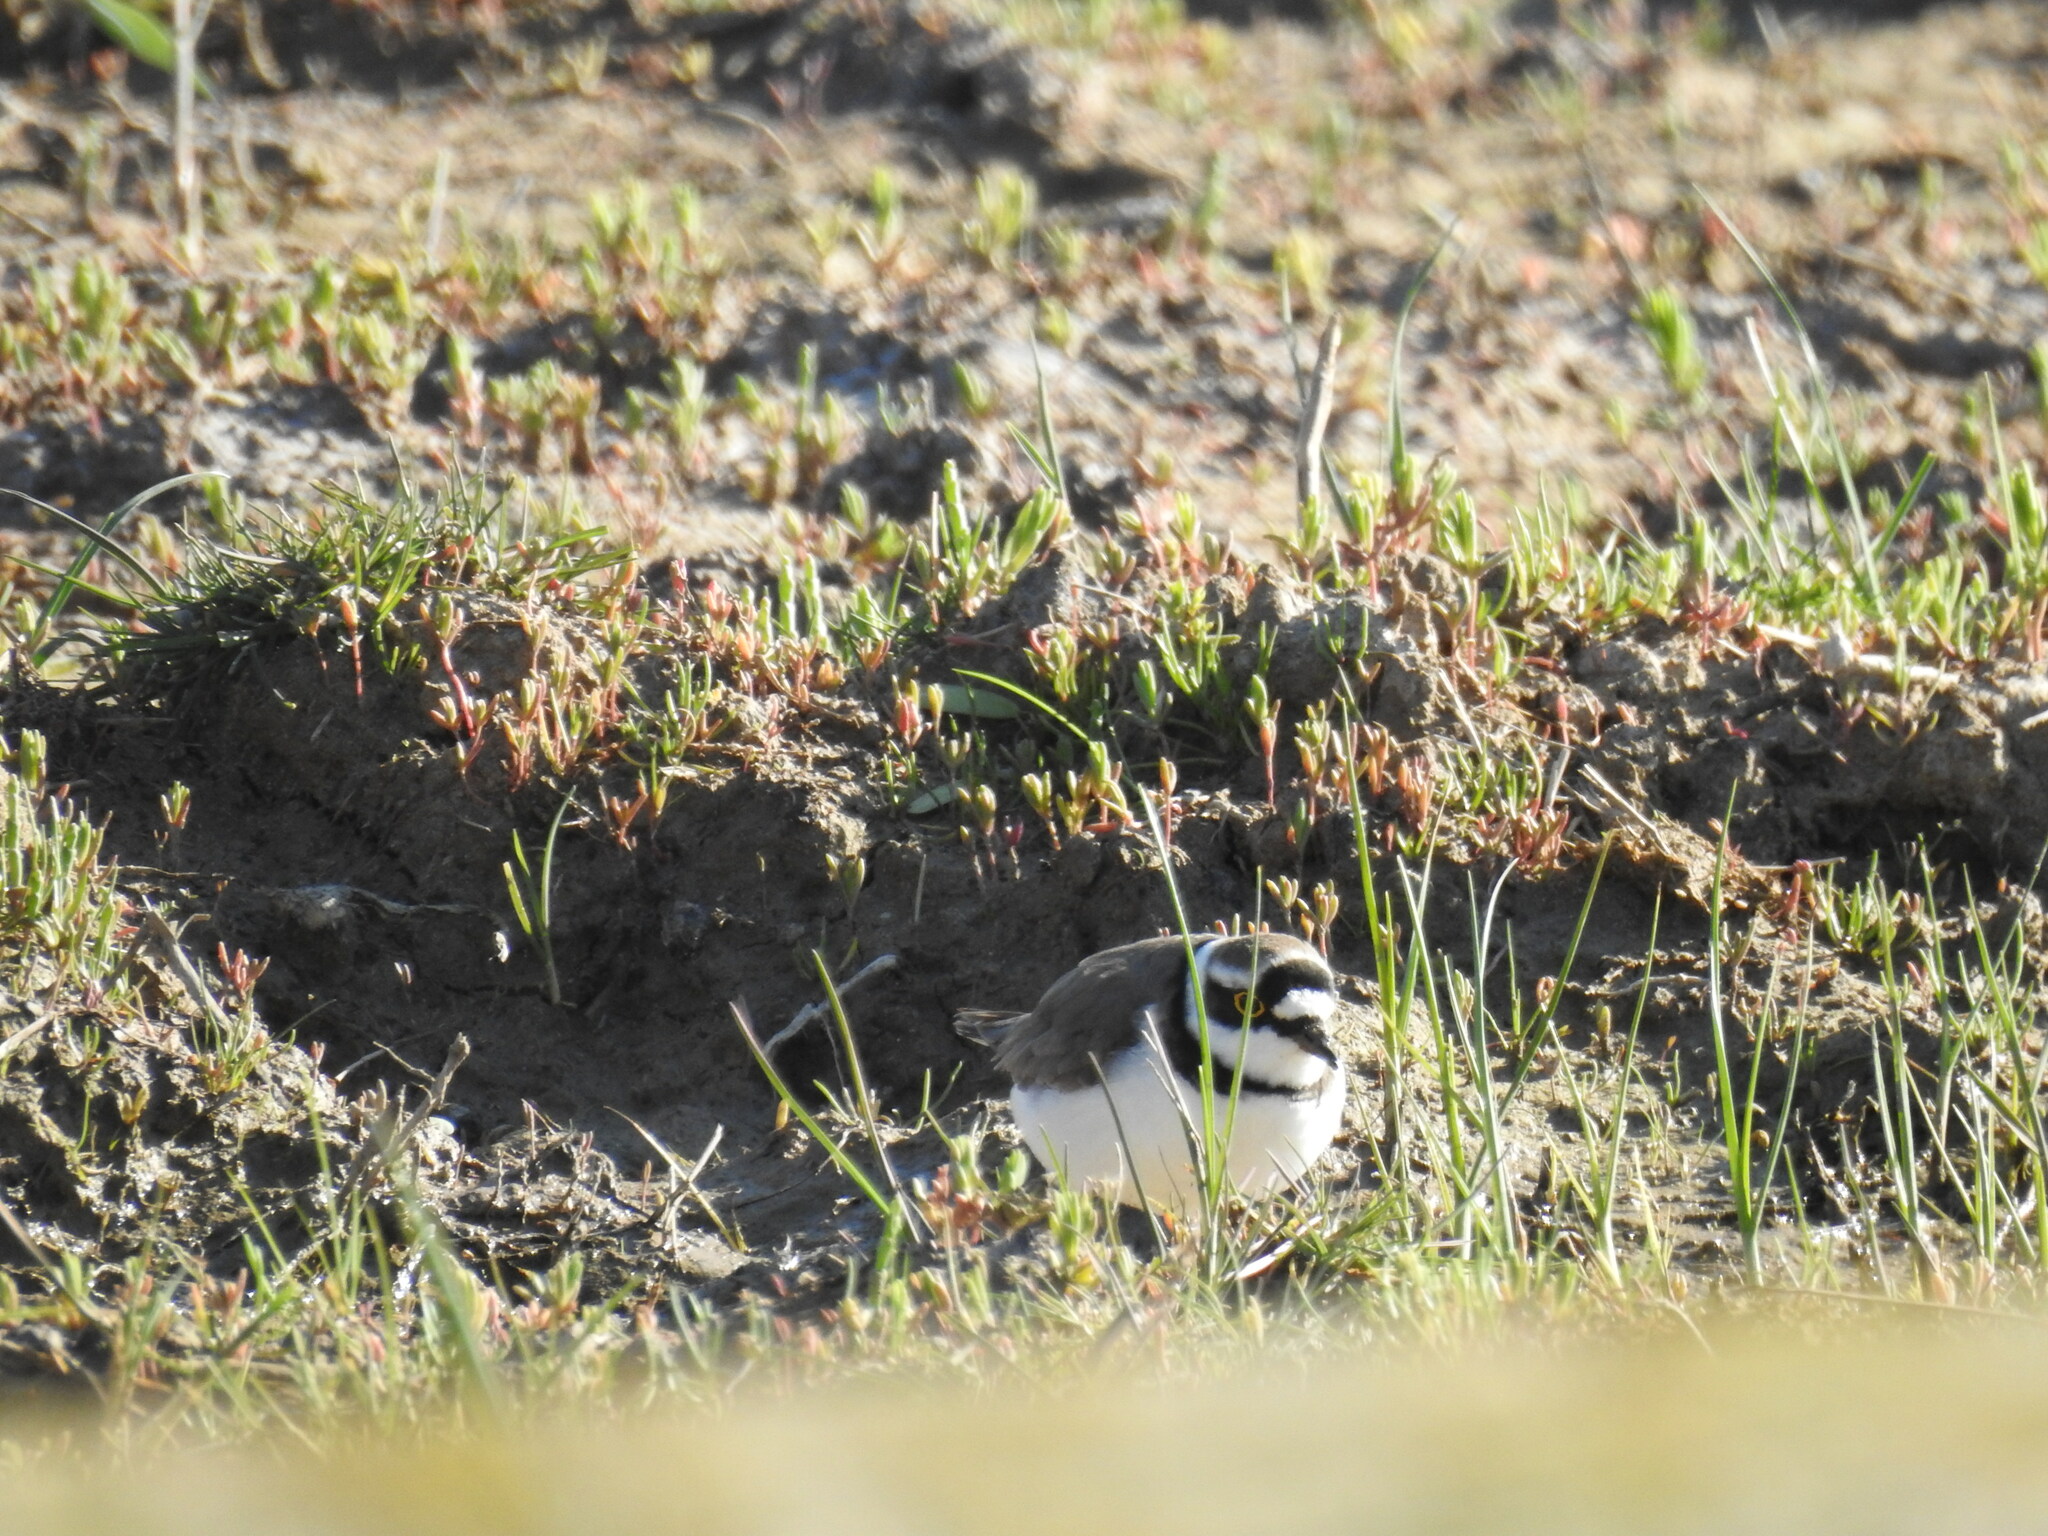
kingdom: Animalia
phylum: Chordata
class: Aves
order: Charadriiformes
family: Charadriidae
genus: Charadrius
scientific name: Charadrius dubius
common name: Little ringed plover
